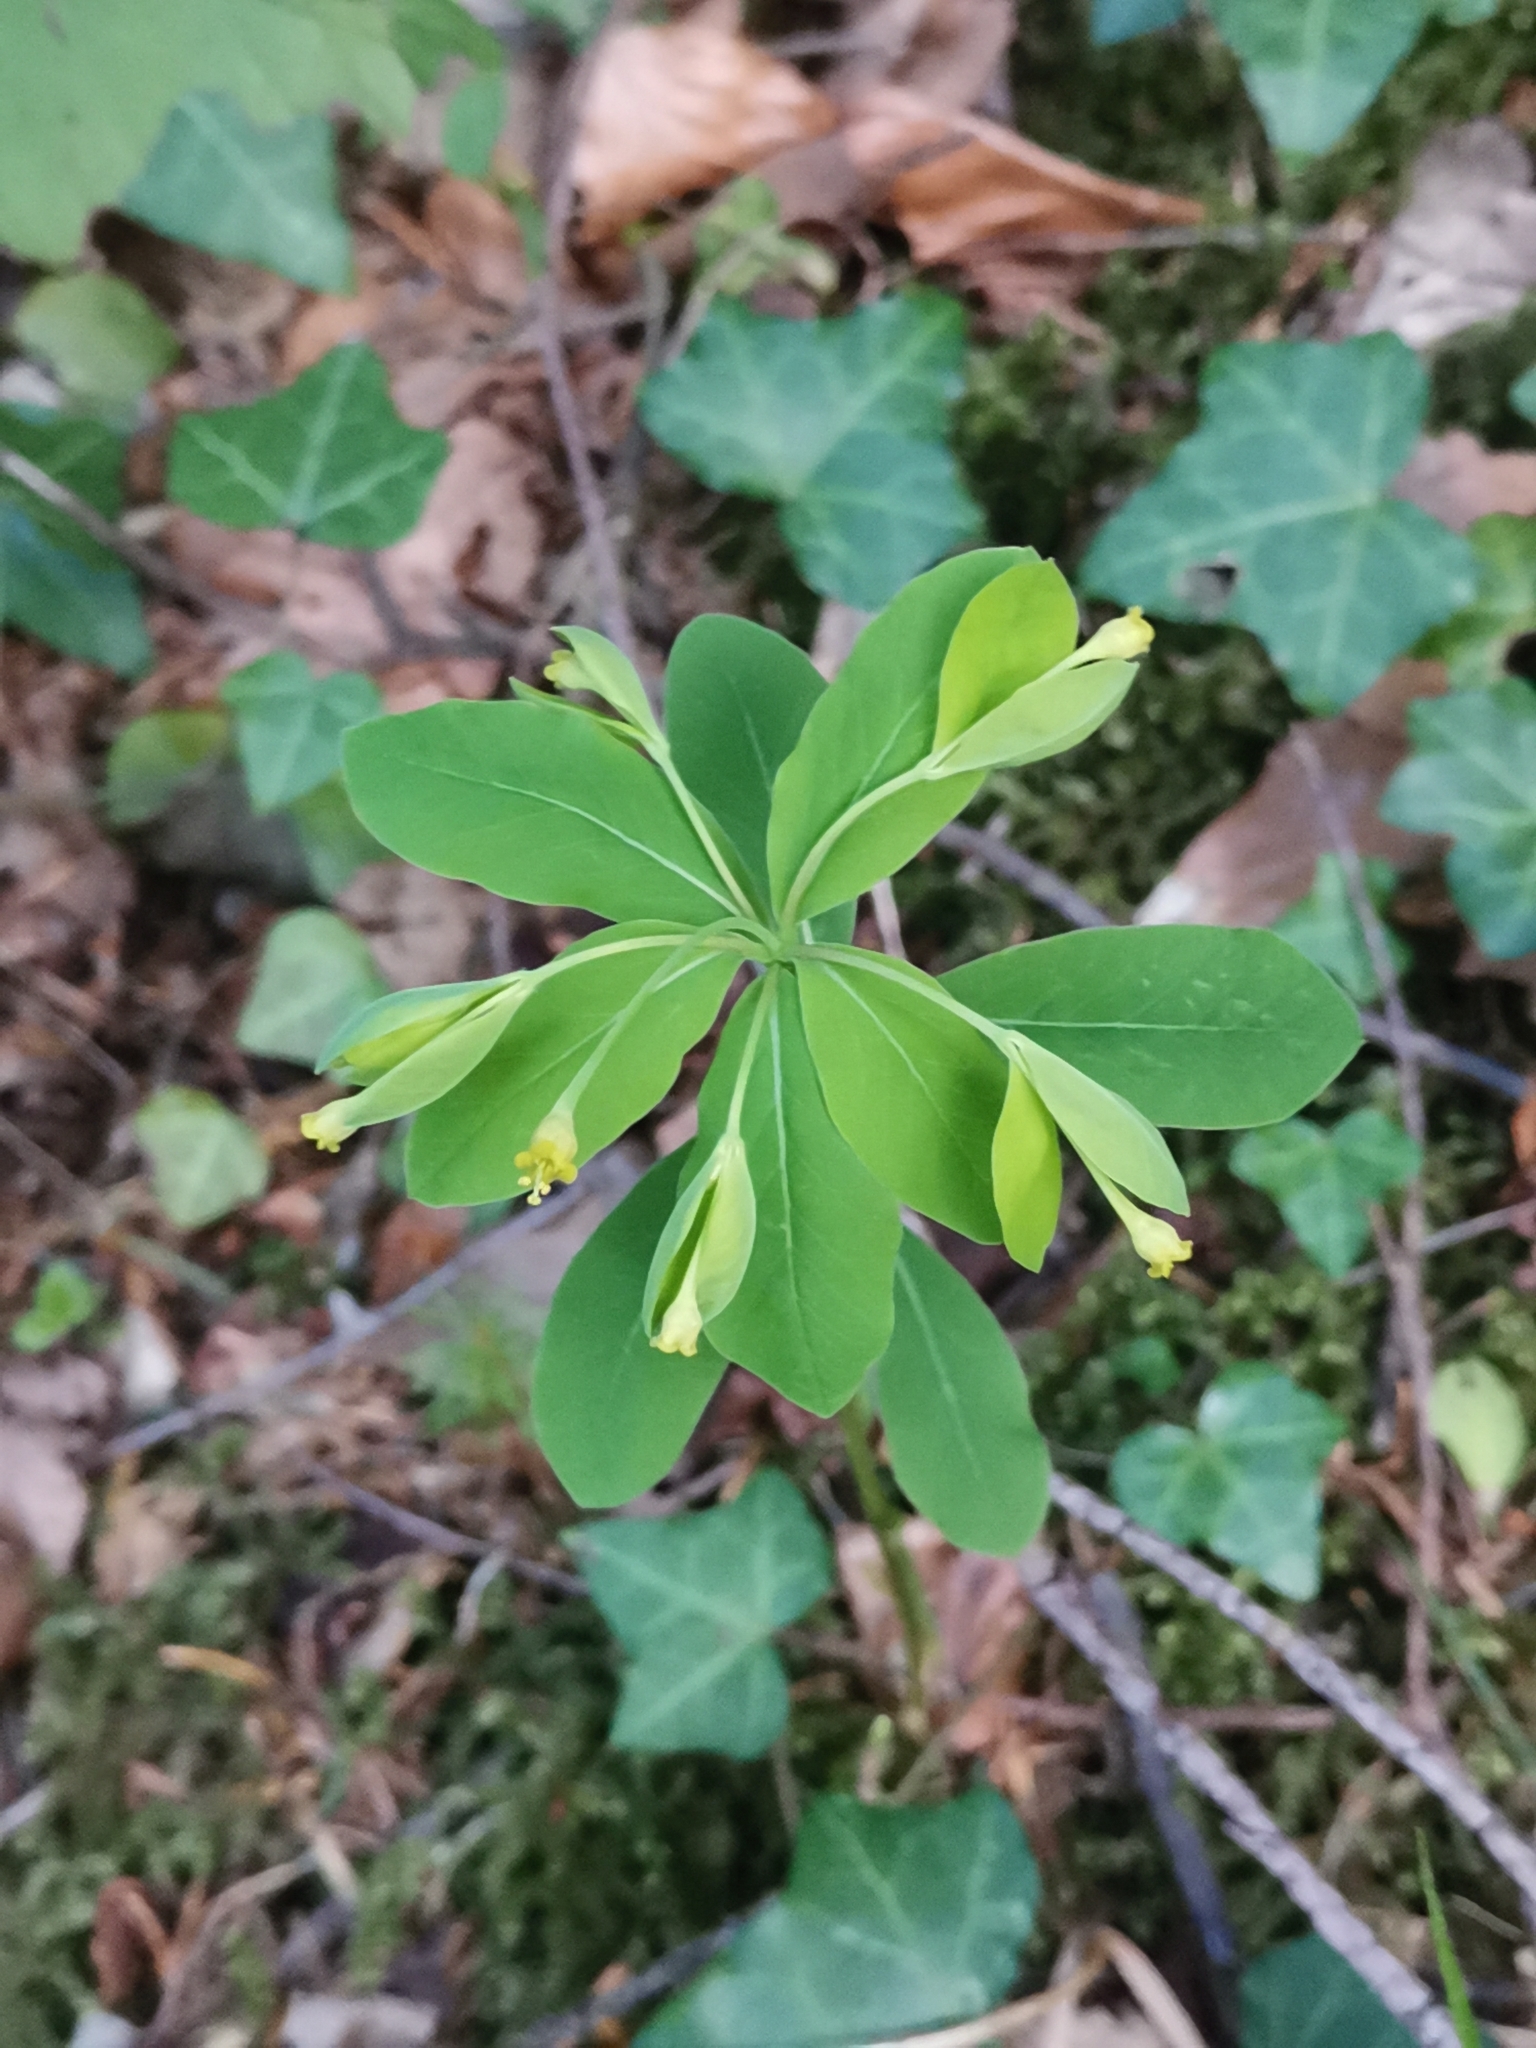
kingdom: Plantae
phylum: Tracheophyta
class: Magnoliopsida
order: Malpighiales
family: Euphorbiaceae
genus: Euphorbia
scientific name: Euphorbia carniolica
